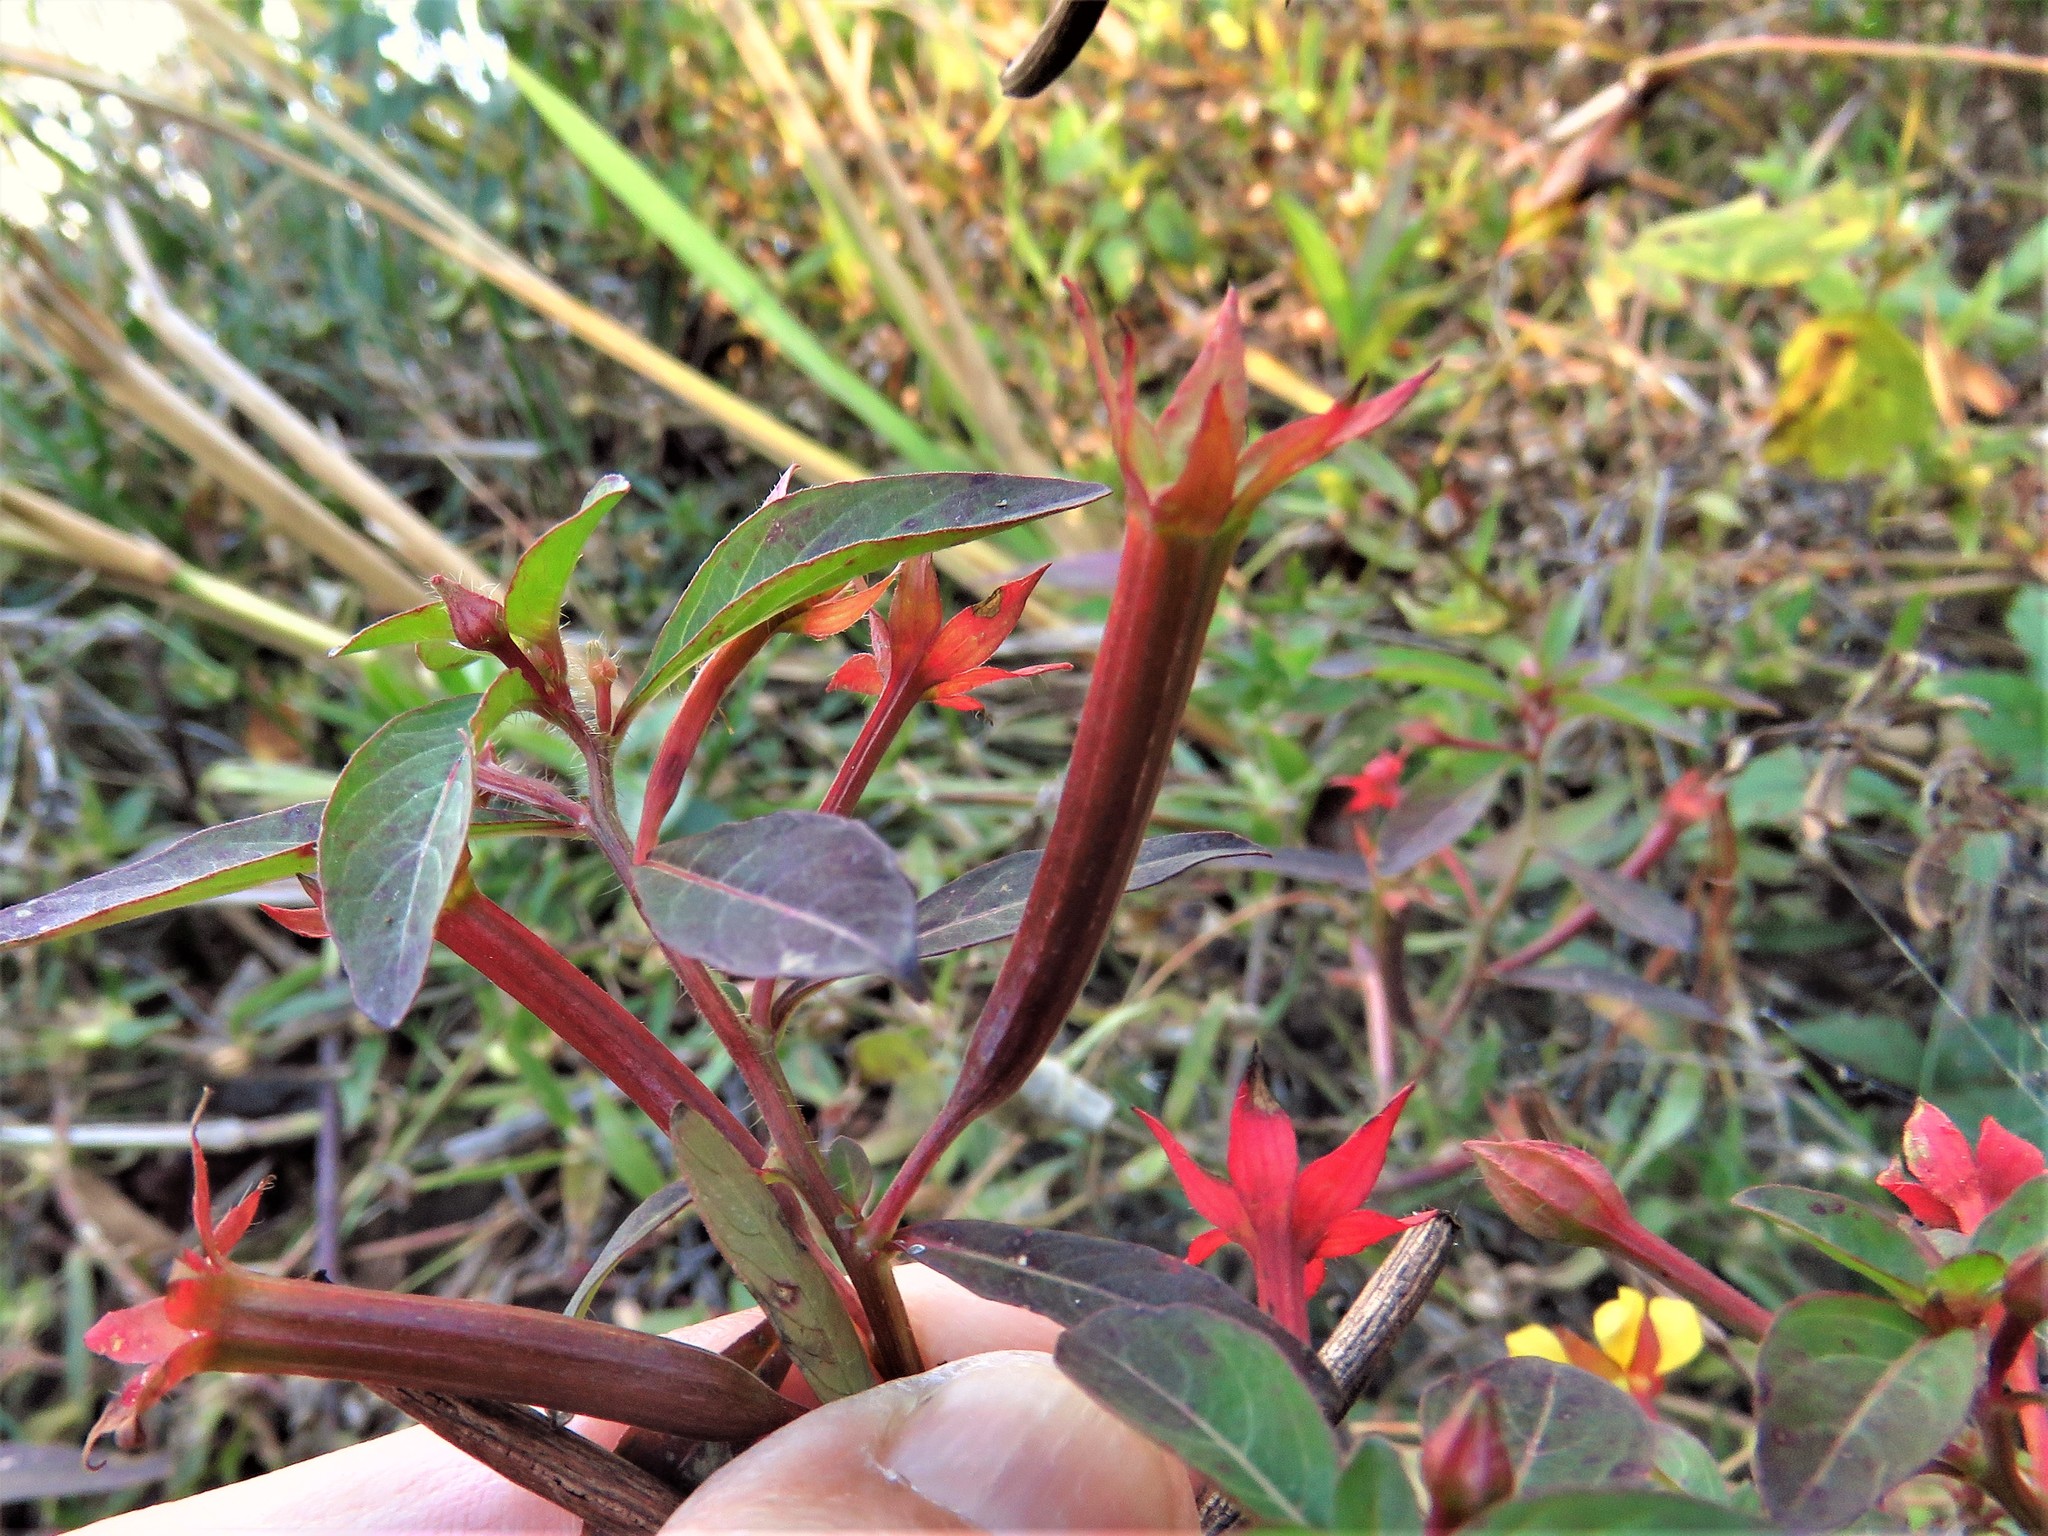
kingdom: Plantae
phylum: Tracheophyta
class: Magnoliopsida
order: Myrtales
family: Onagraceae
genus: Ludwigia
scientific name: Ludwigia leptocarpa
